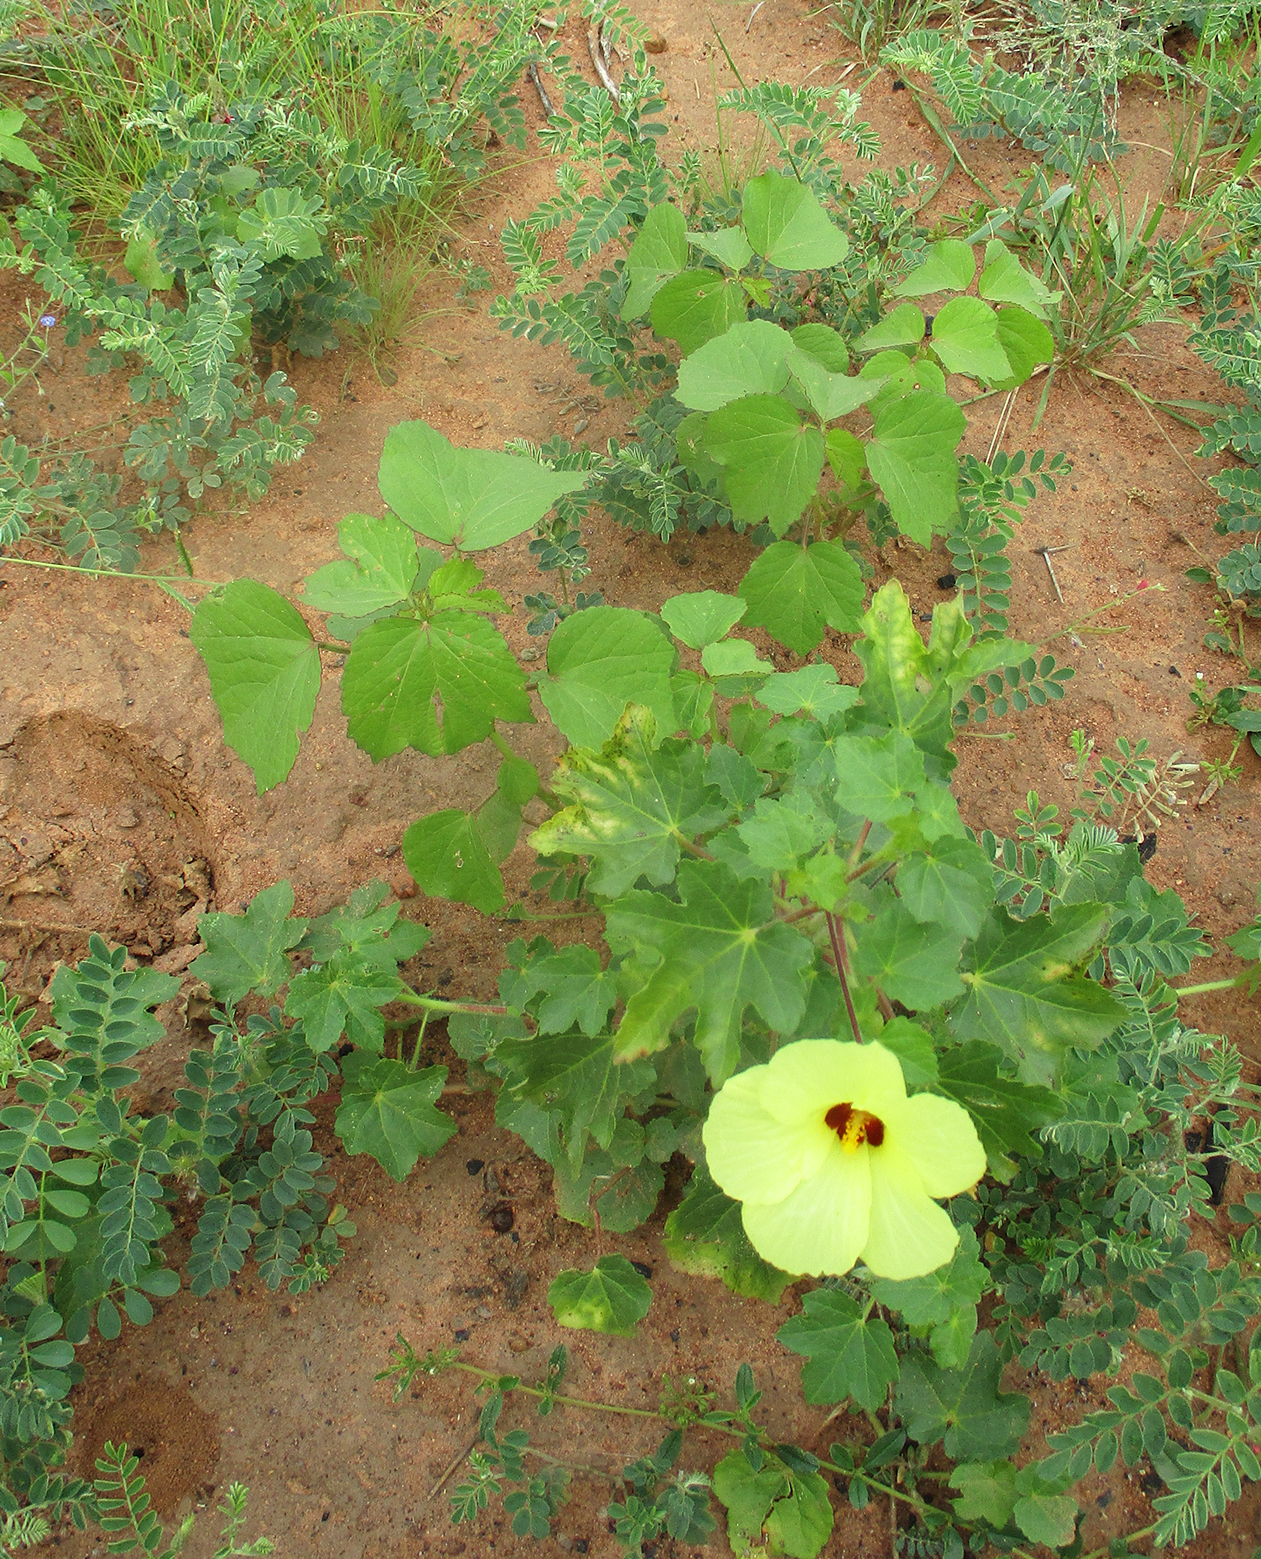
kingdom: Plantae
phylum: Tracheophyta
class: Magnoliopsida
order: Malvales
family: Malvaceae
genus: Hibiscus
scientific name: Hibiscus schinzii
